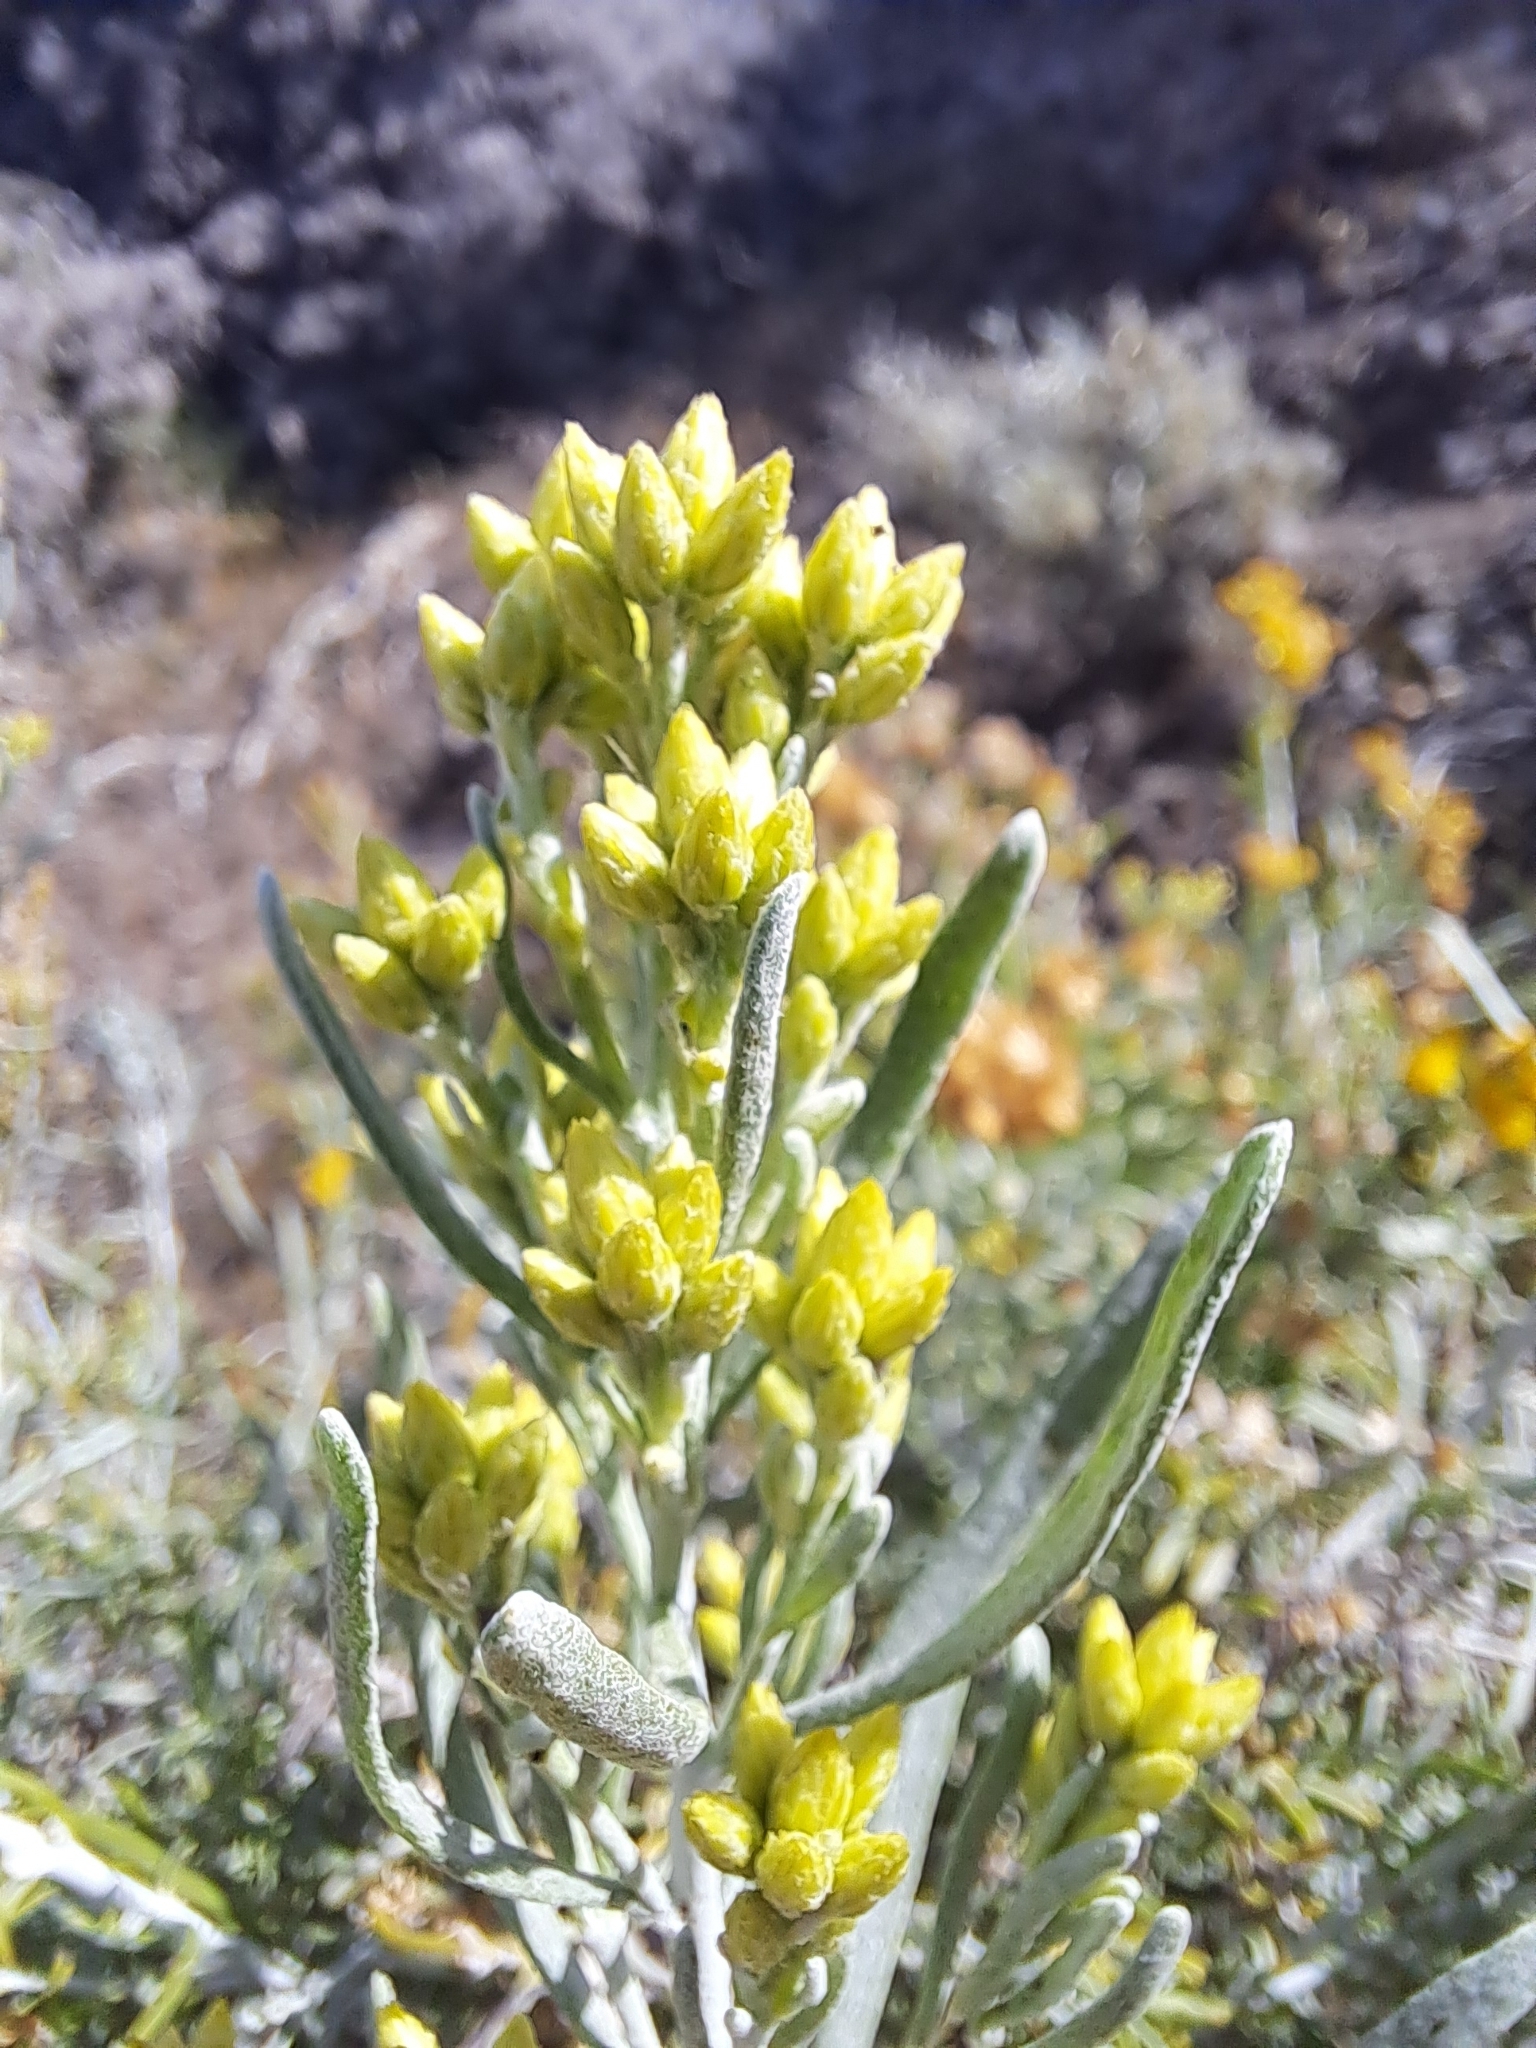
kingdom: Plantae
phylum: Tracheophyta
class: Magnoliopsida
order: Asterales
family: Asteraceae
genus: Schizogyne
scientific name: Schizogyne sericea
